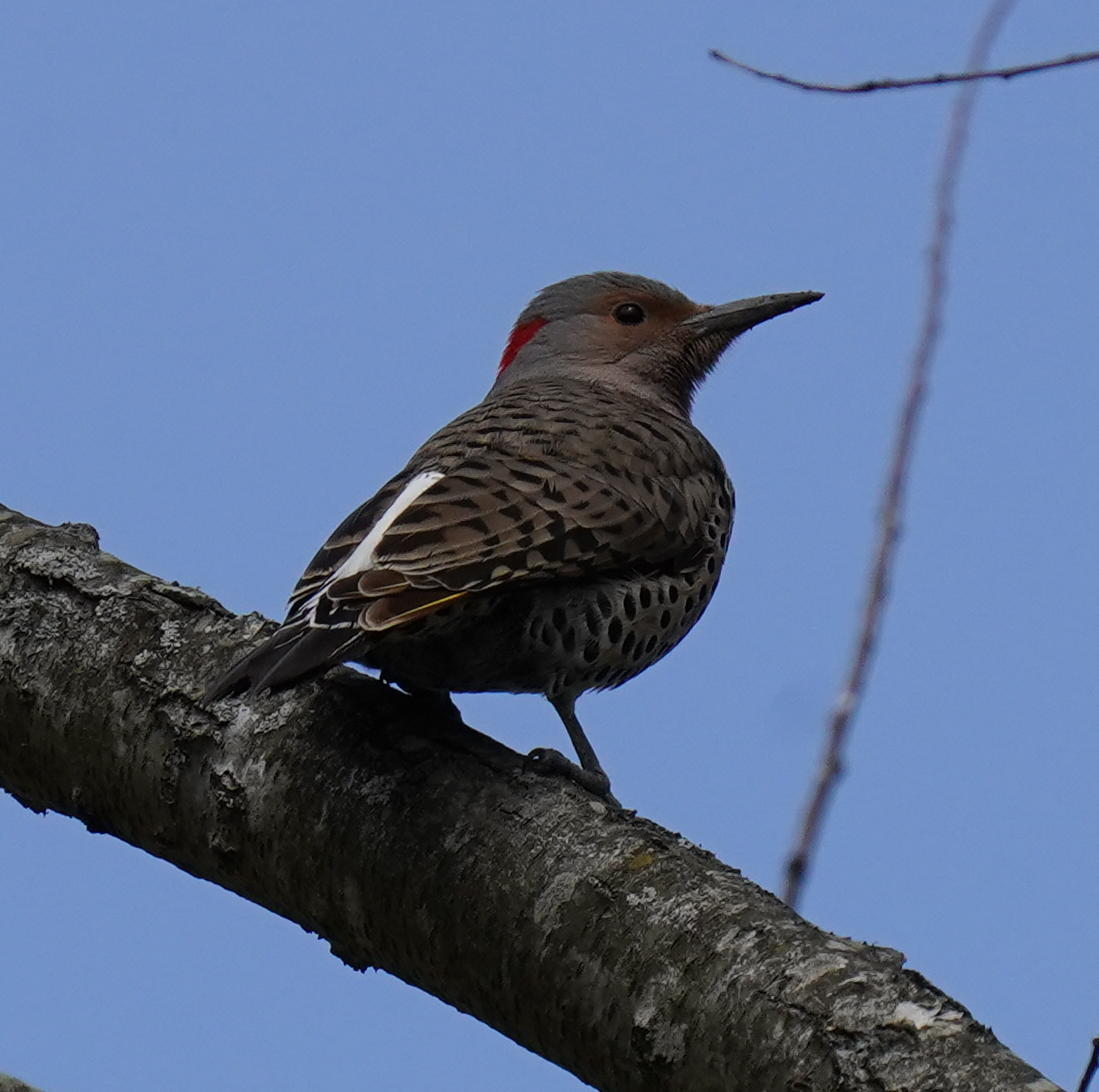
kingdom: Animalia
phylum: Chordata
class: Aves
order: Piciformes
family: Picidae
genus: Colaptes
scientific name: Colaptes auratus
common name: Northern flicker
